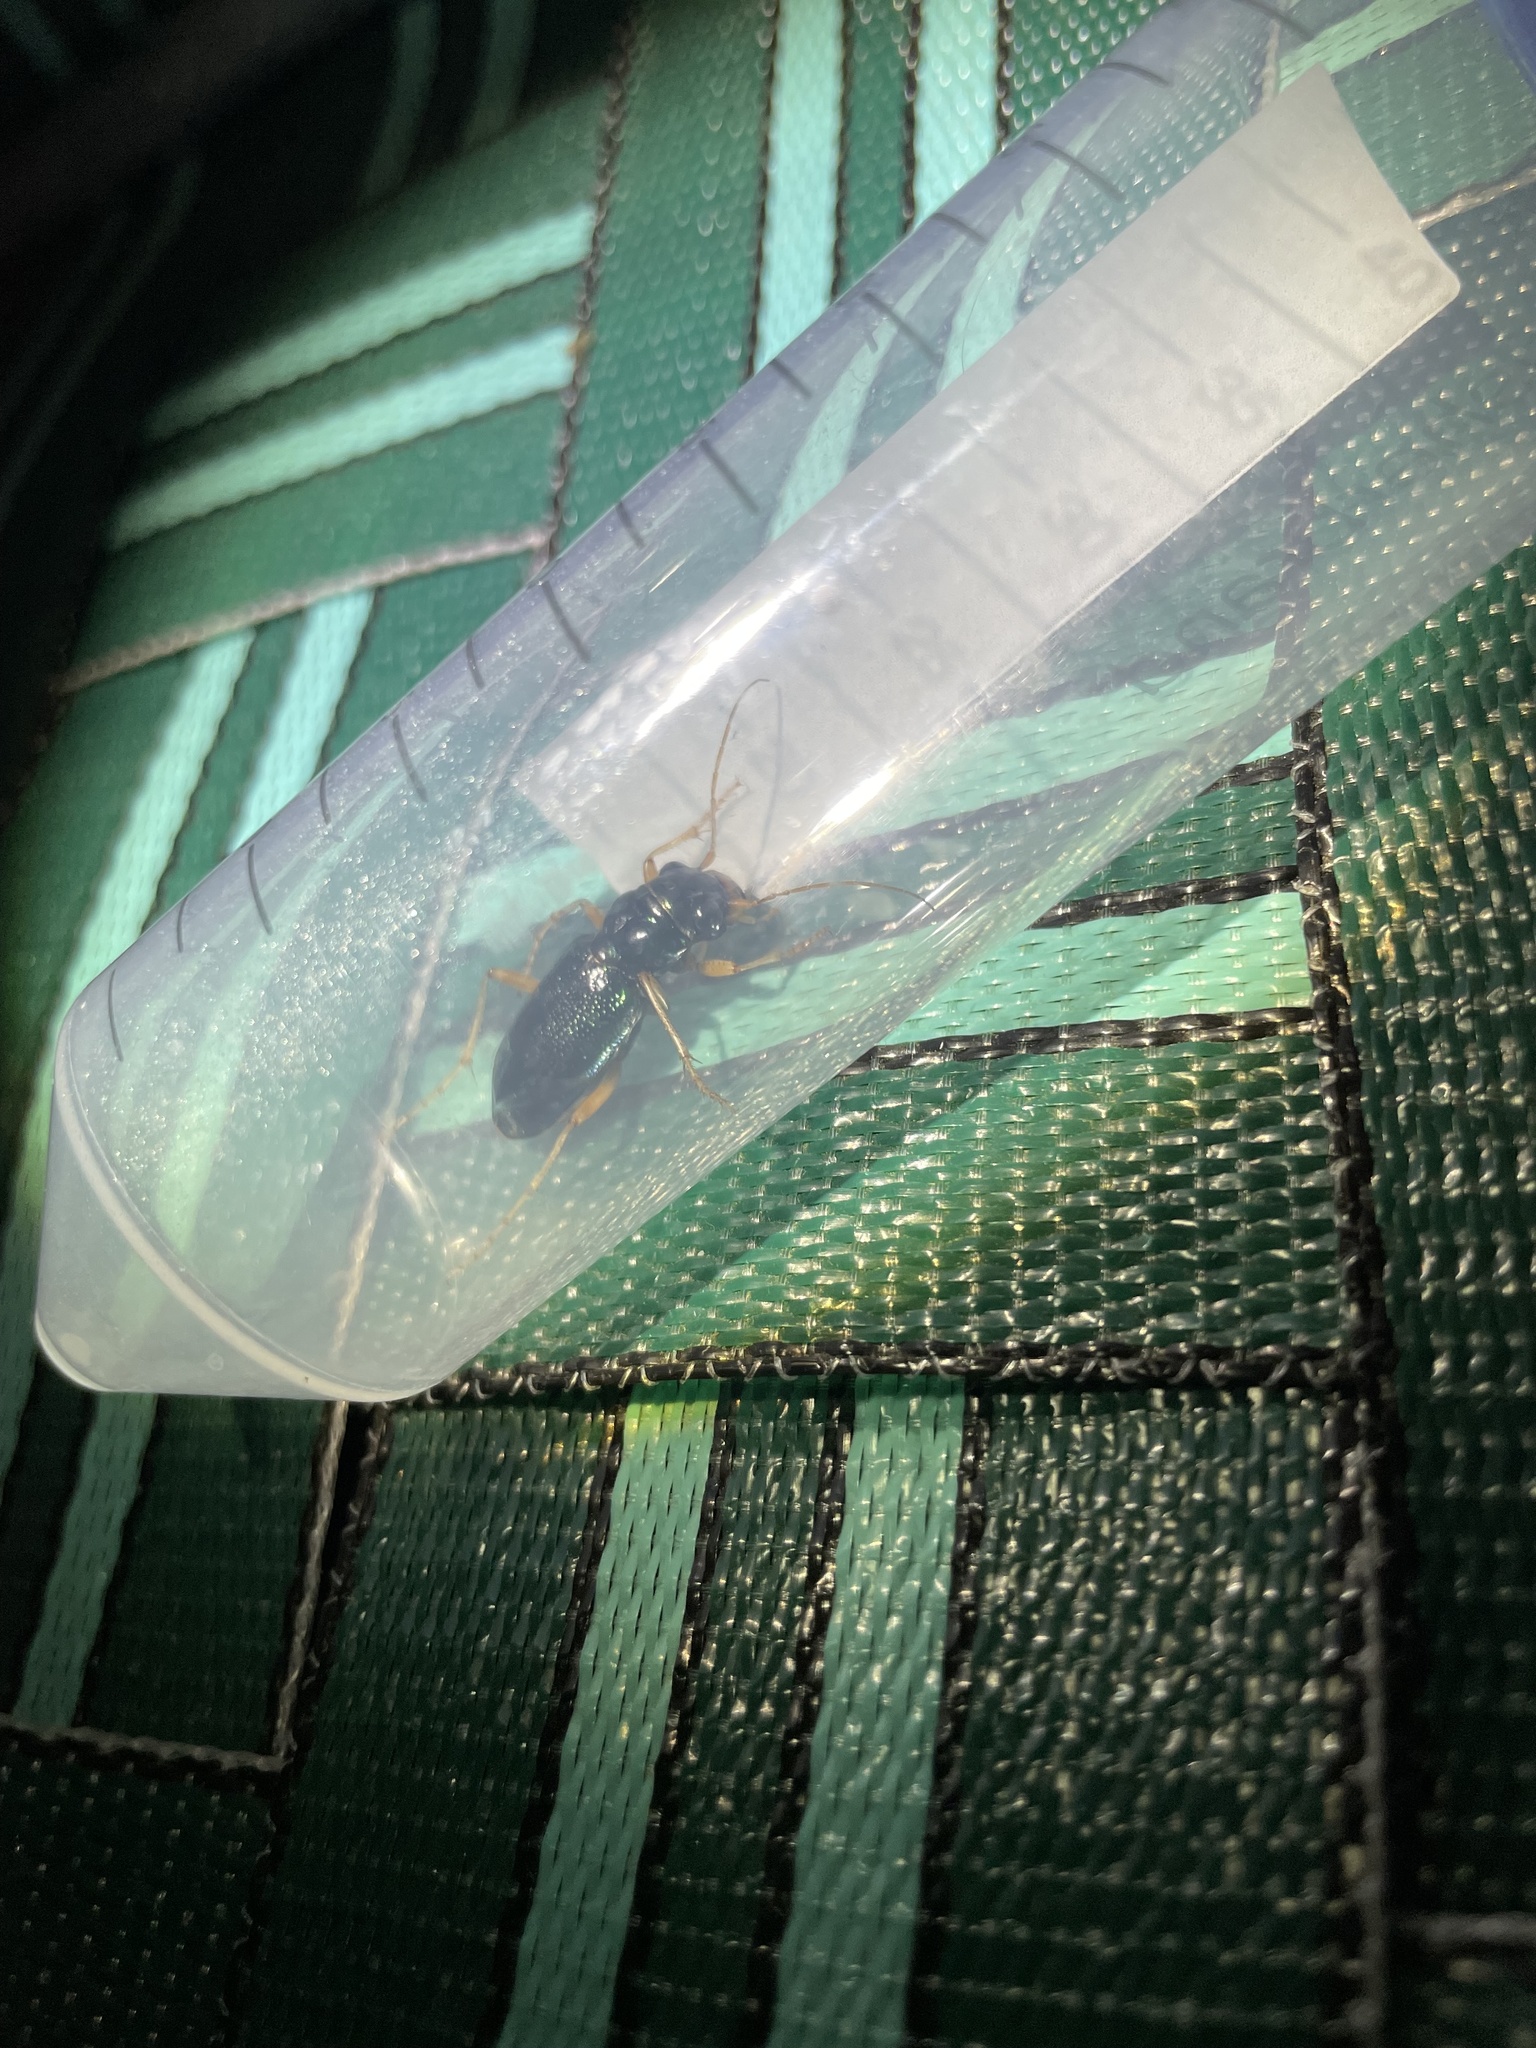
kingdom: Animalia
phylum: Arthropoda
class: Insecta
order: Coleoptera
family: Carabidae
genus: Tetracha
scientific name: Tetracha virginica
